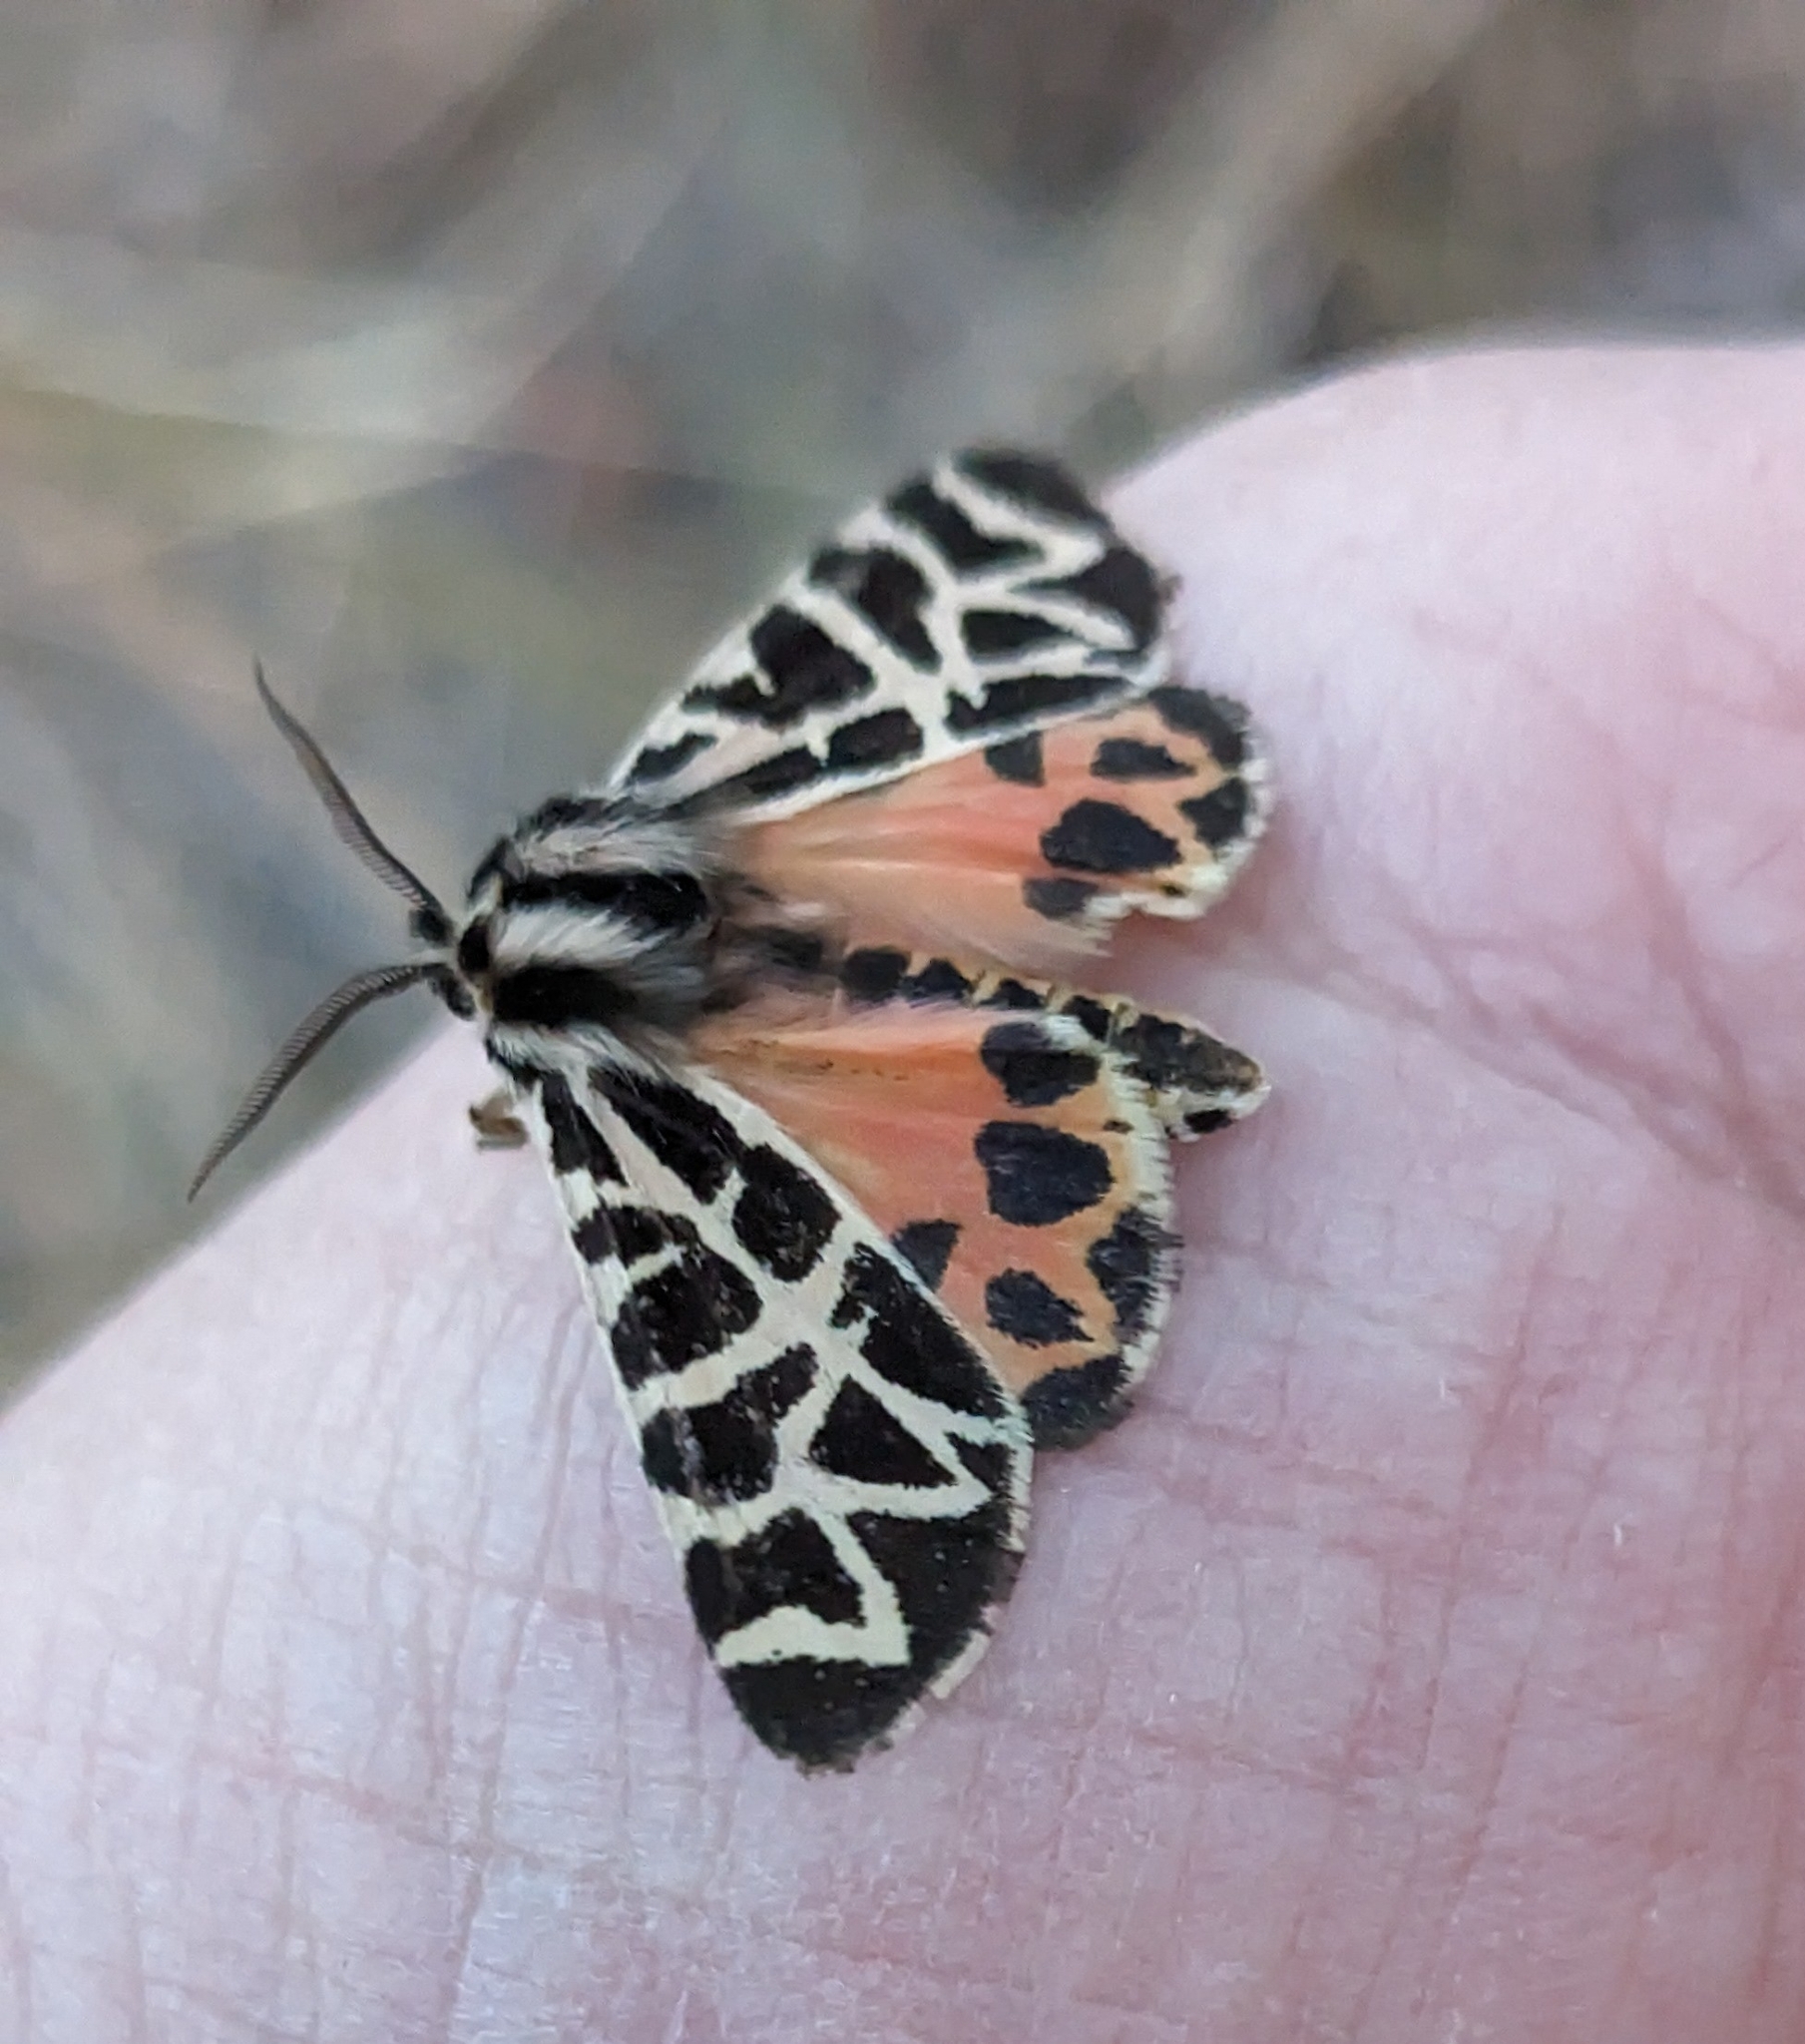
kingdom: Animalia
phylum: Arthropoda
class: Insecta
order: Lepidoptera
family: Erebidae
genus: Apantesis
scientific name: Apantesis
